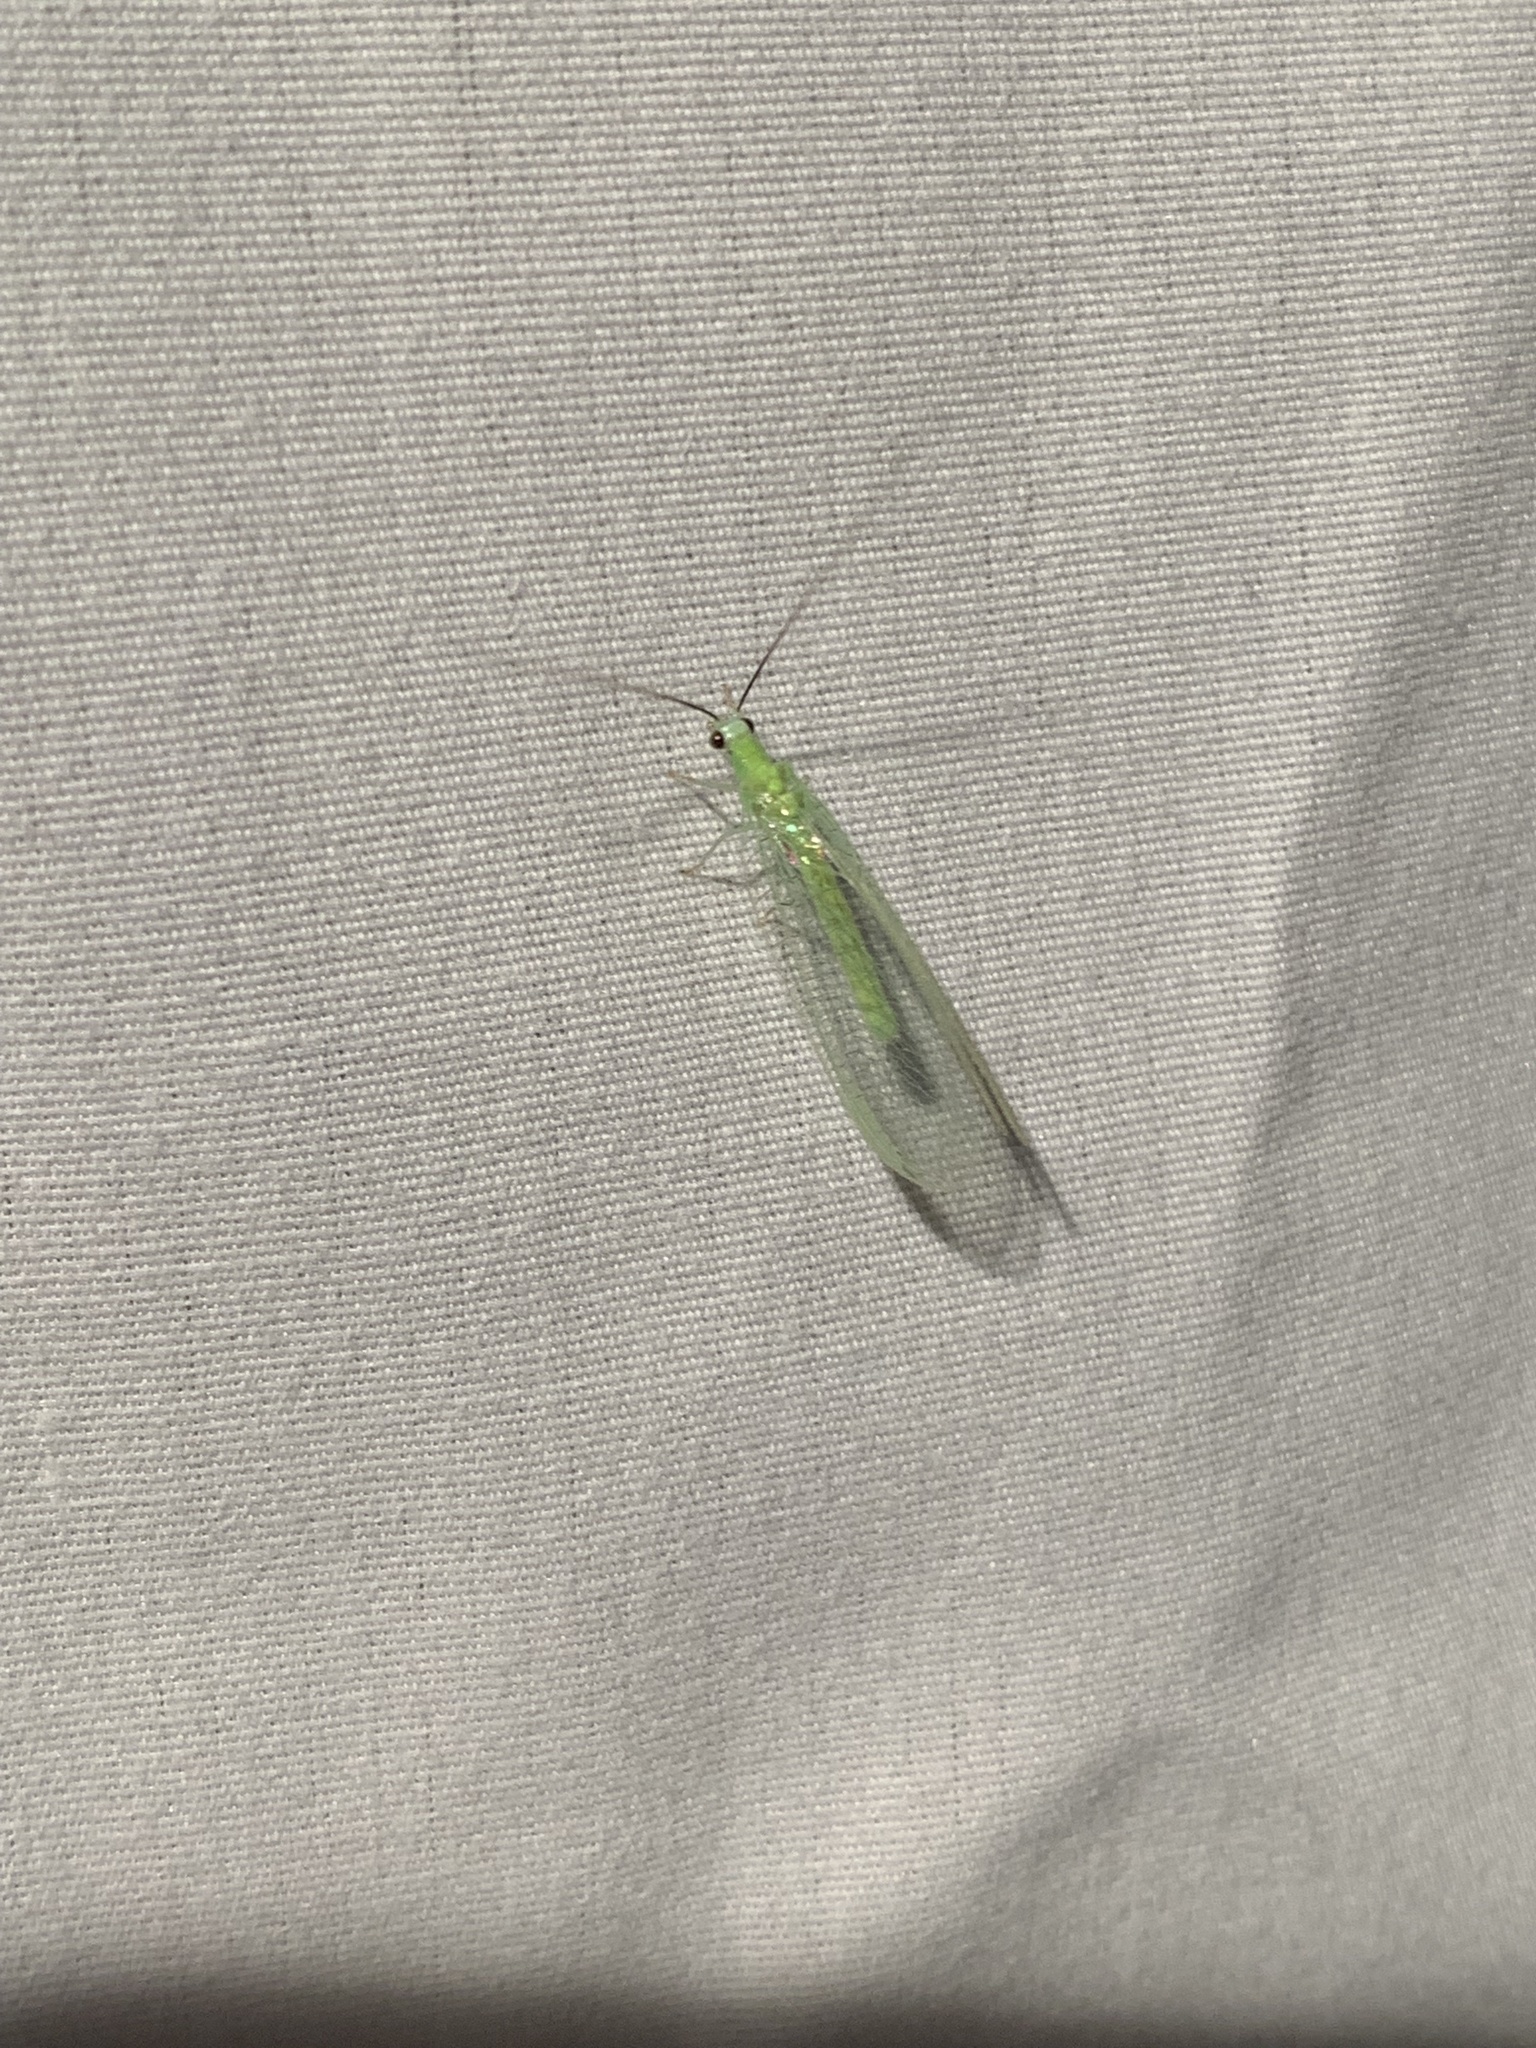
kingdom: Animalia
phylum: Arthropoda
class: Insecta
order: Neuroptera
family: Chrysopidae
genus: Chrysopa
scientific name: Chrysopa nigricornis
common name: Black-horned green lacewing
